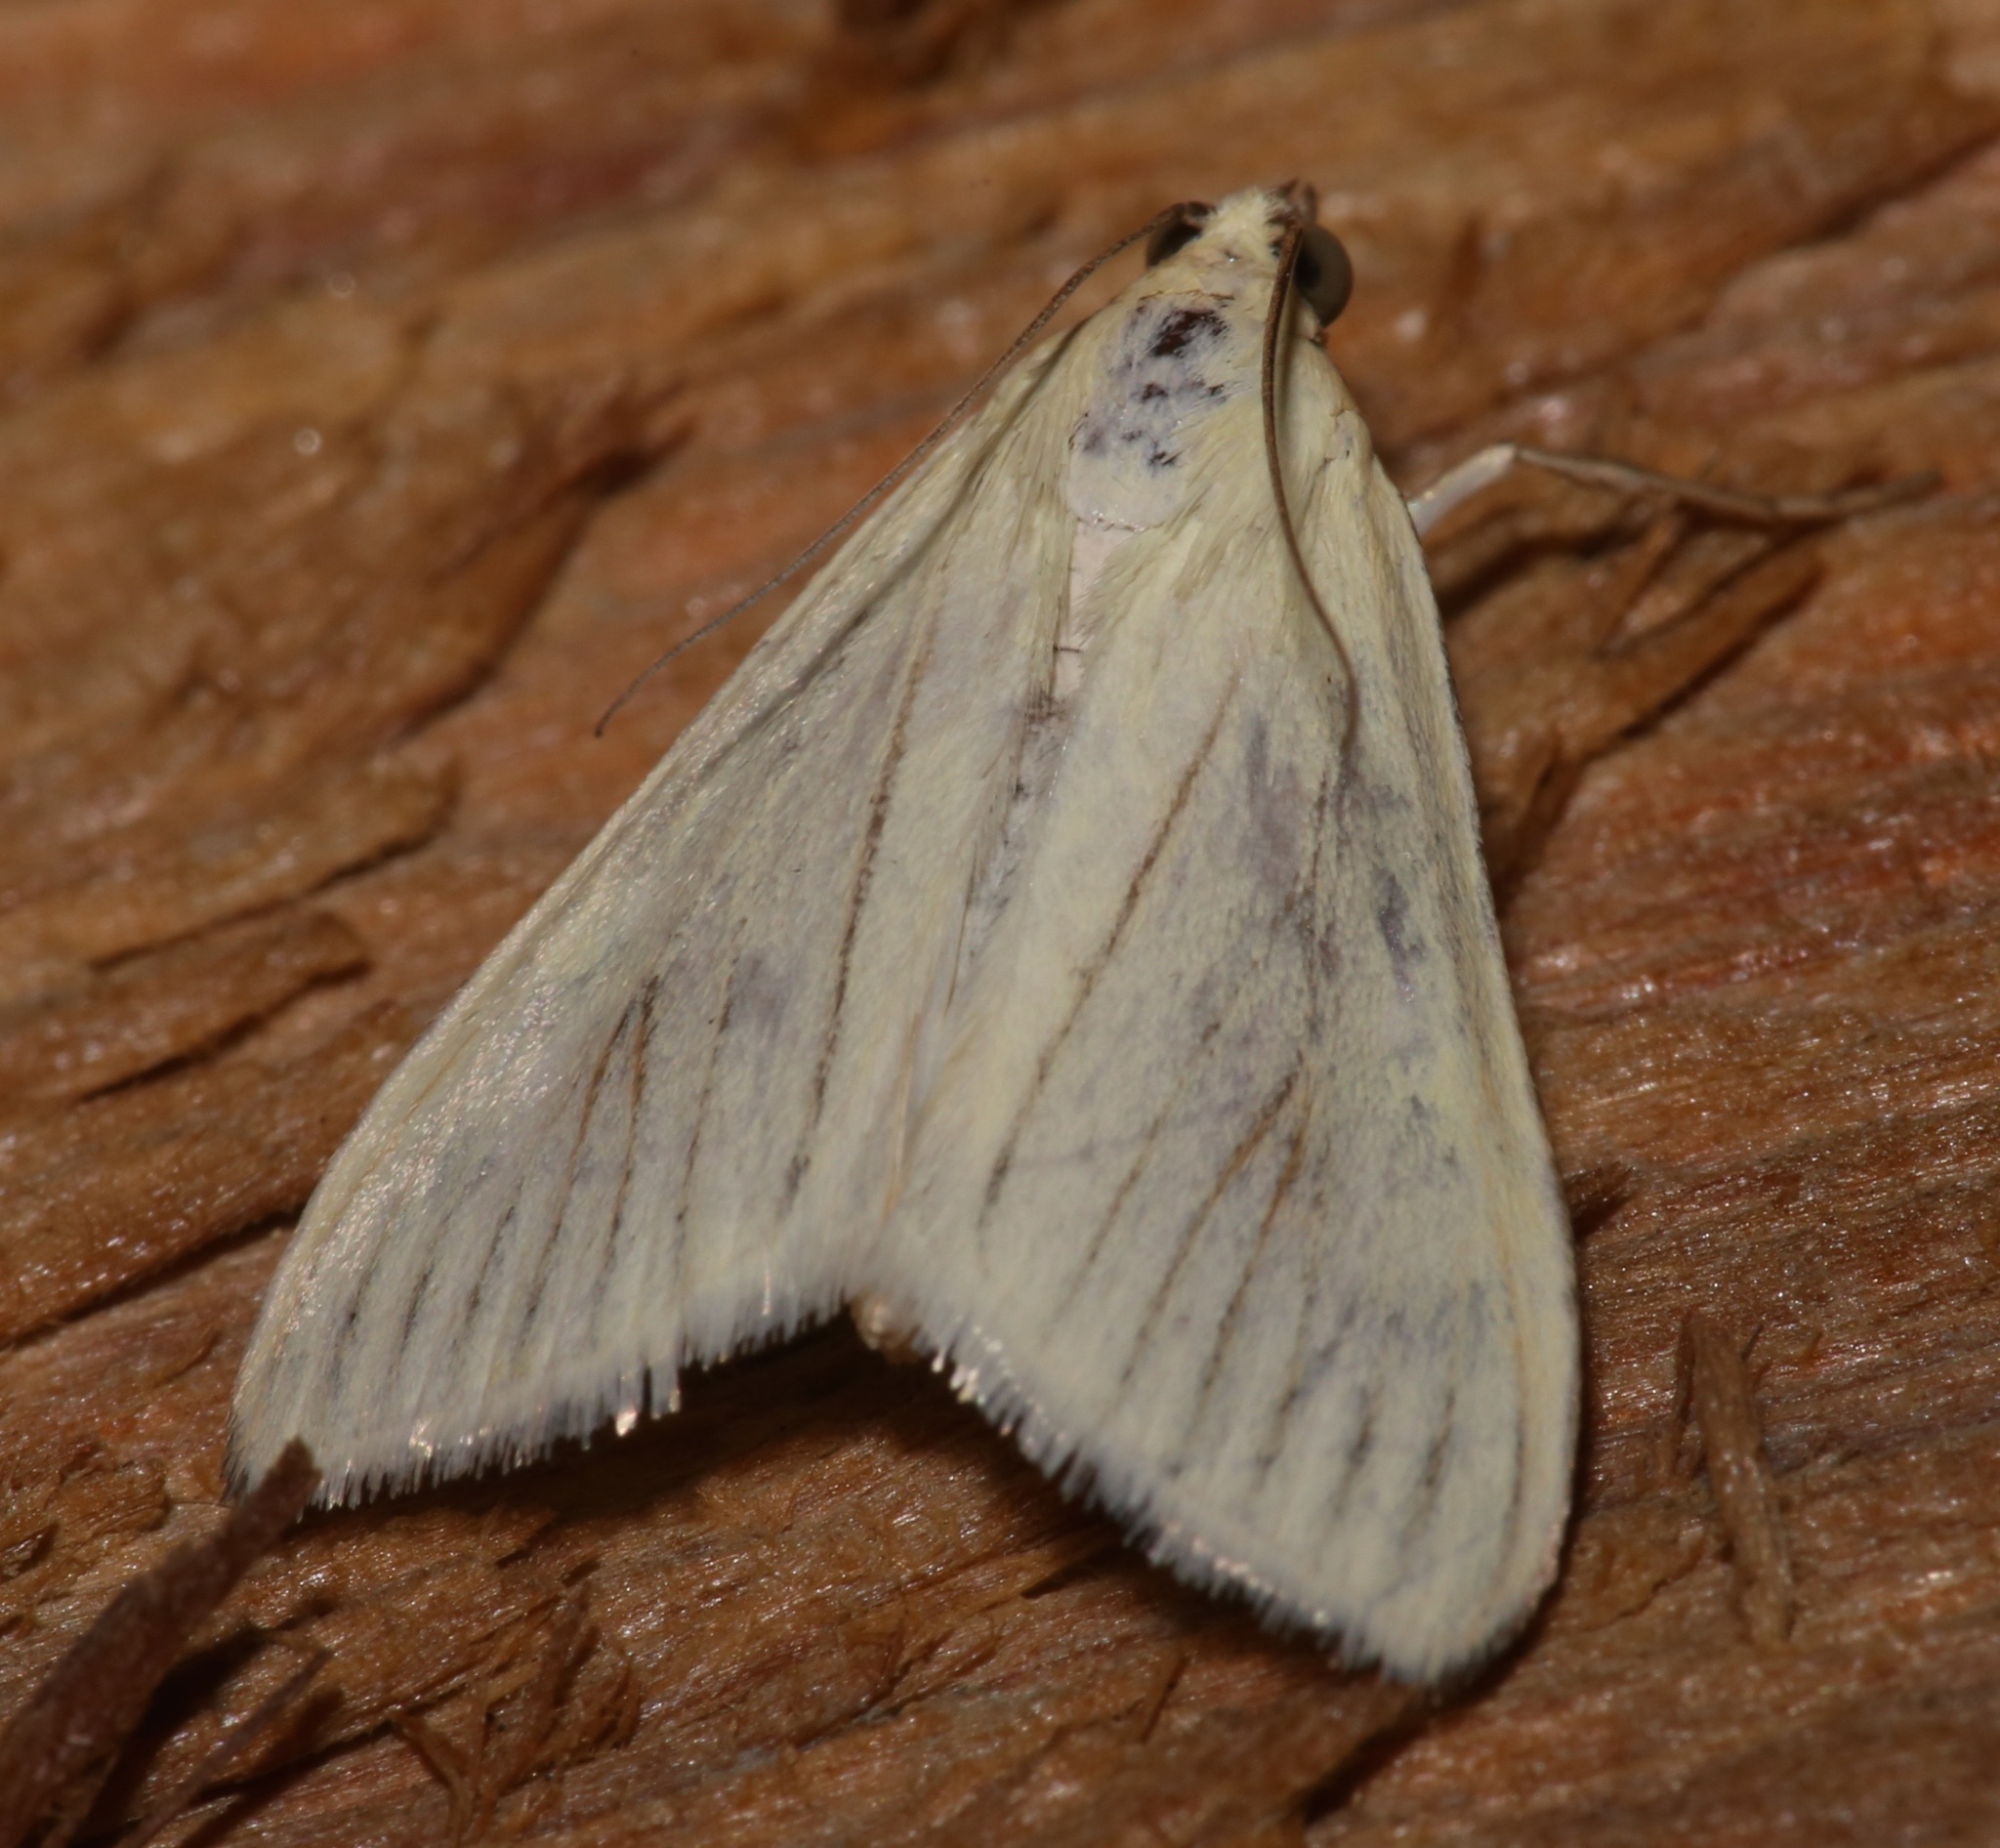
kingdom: Animalia
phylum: Arthropoda
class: Insecta
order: Lepidoptera
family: Crambidae
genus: Sitochroa
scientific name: Sitochroa palealis
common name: Greenish-yellow sitochroa moth
